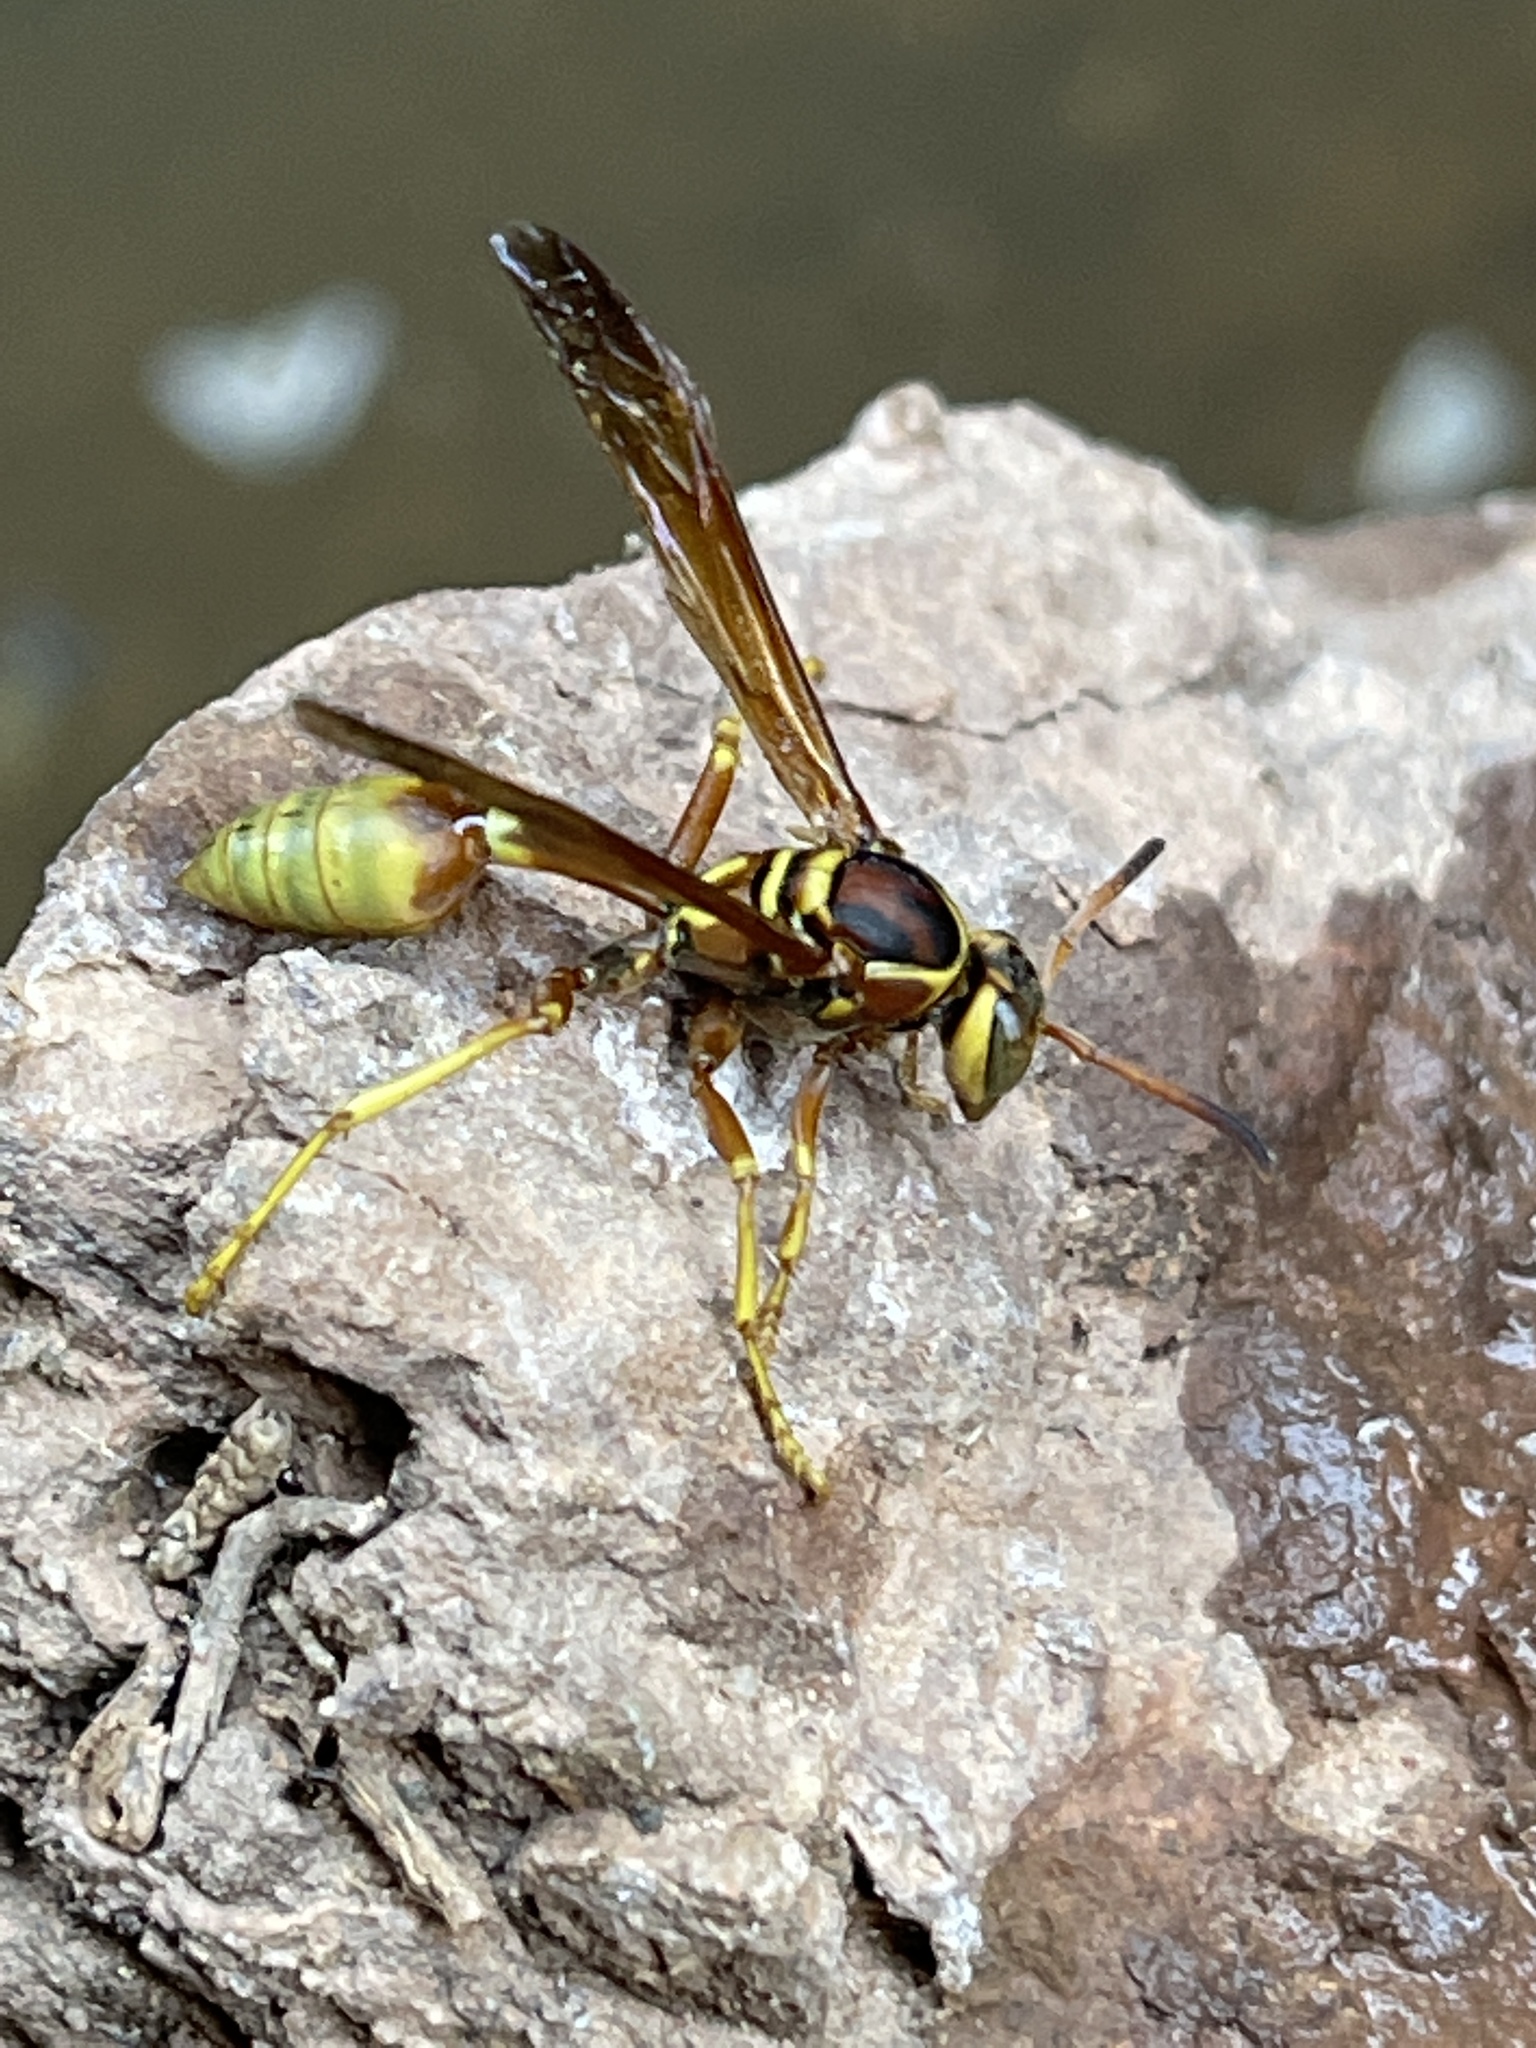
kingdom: Animalia
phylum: Arthropoda
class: Insecta
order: Hymenoptera
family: Vespidae
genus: Mischocyttarus
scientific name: Mischocyttarus flavitarsis
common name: Wasp
